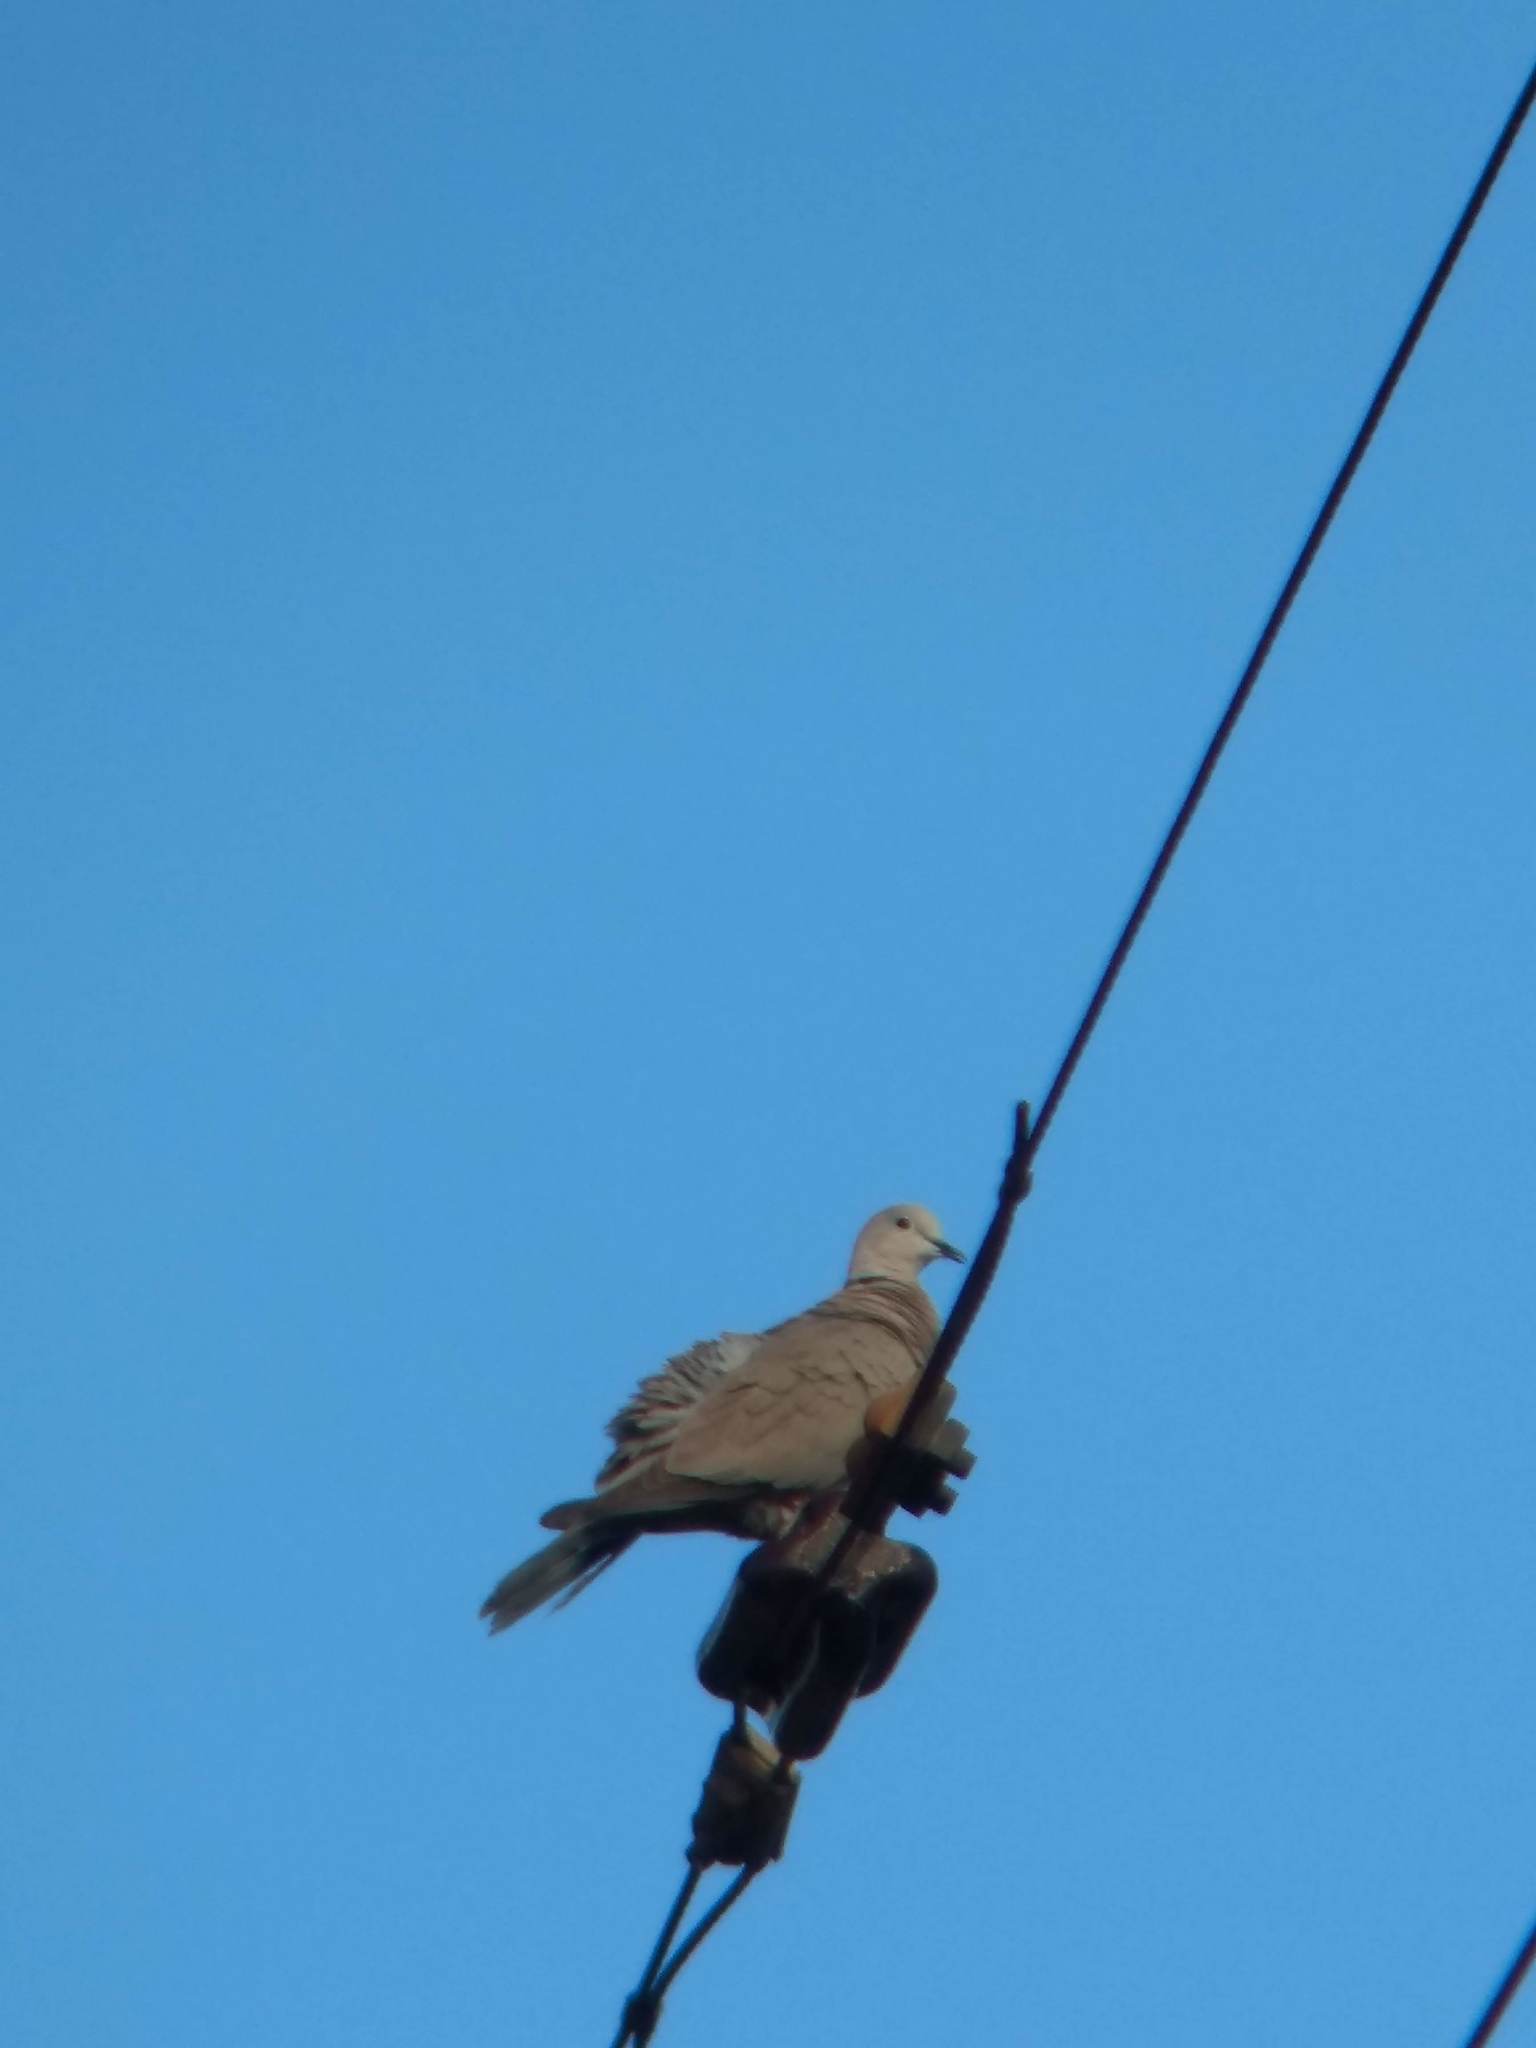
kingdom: Animalia
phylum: Chordata
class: Aves
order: Columbiformes
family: Columbidae
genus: Streptopelia
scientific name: Streptopelia decaocto
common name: Eurasian collared dove
